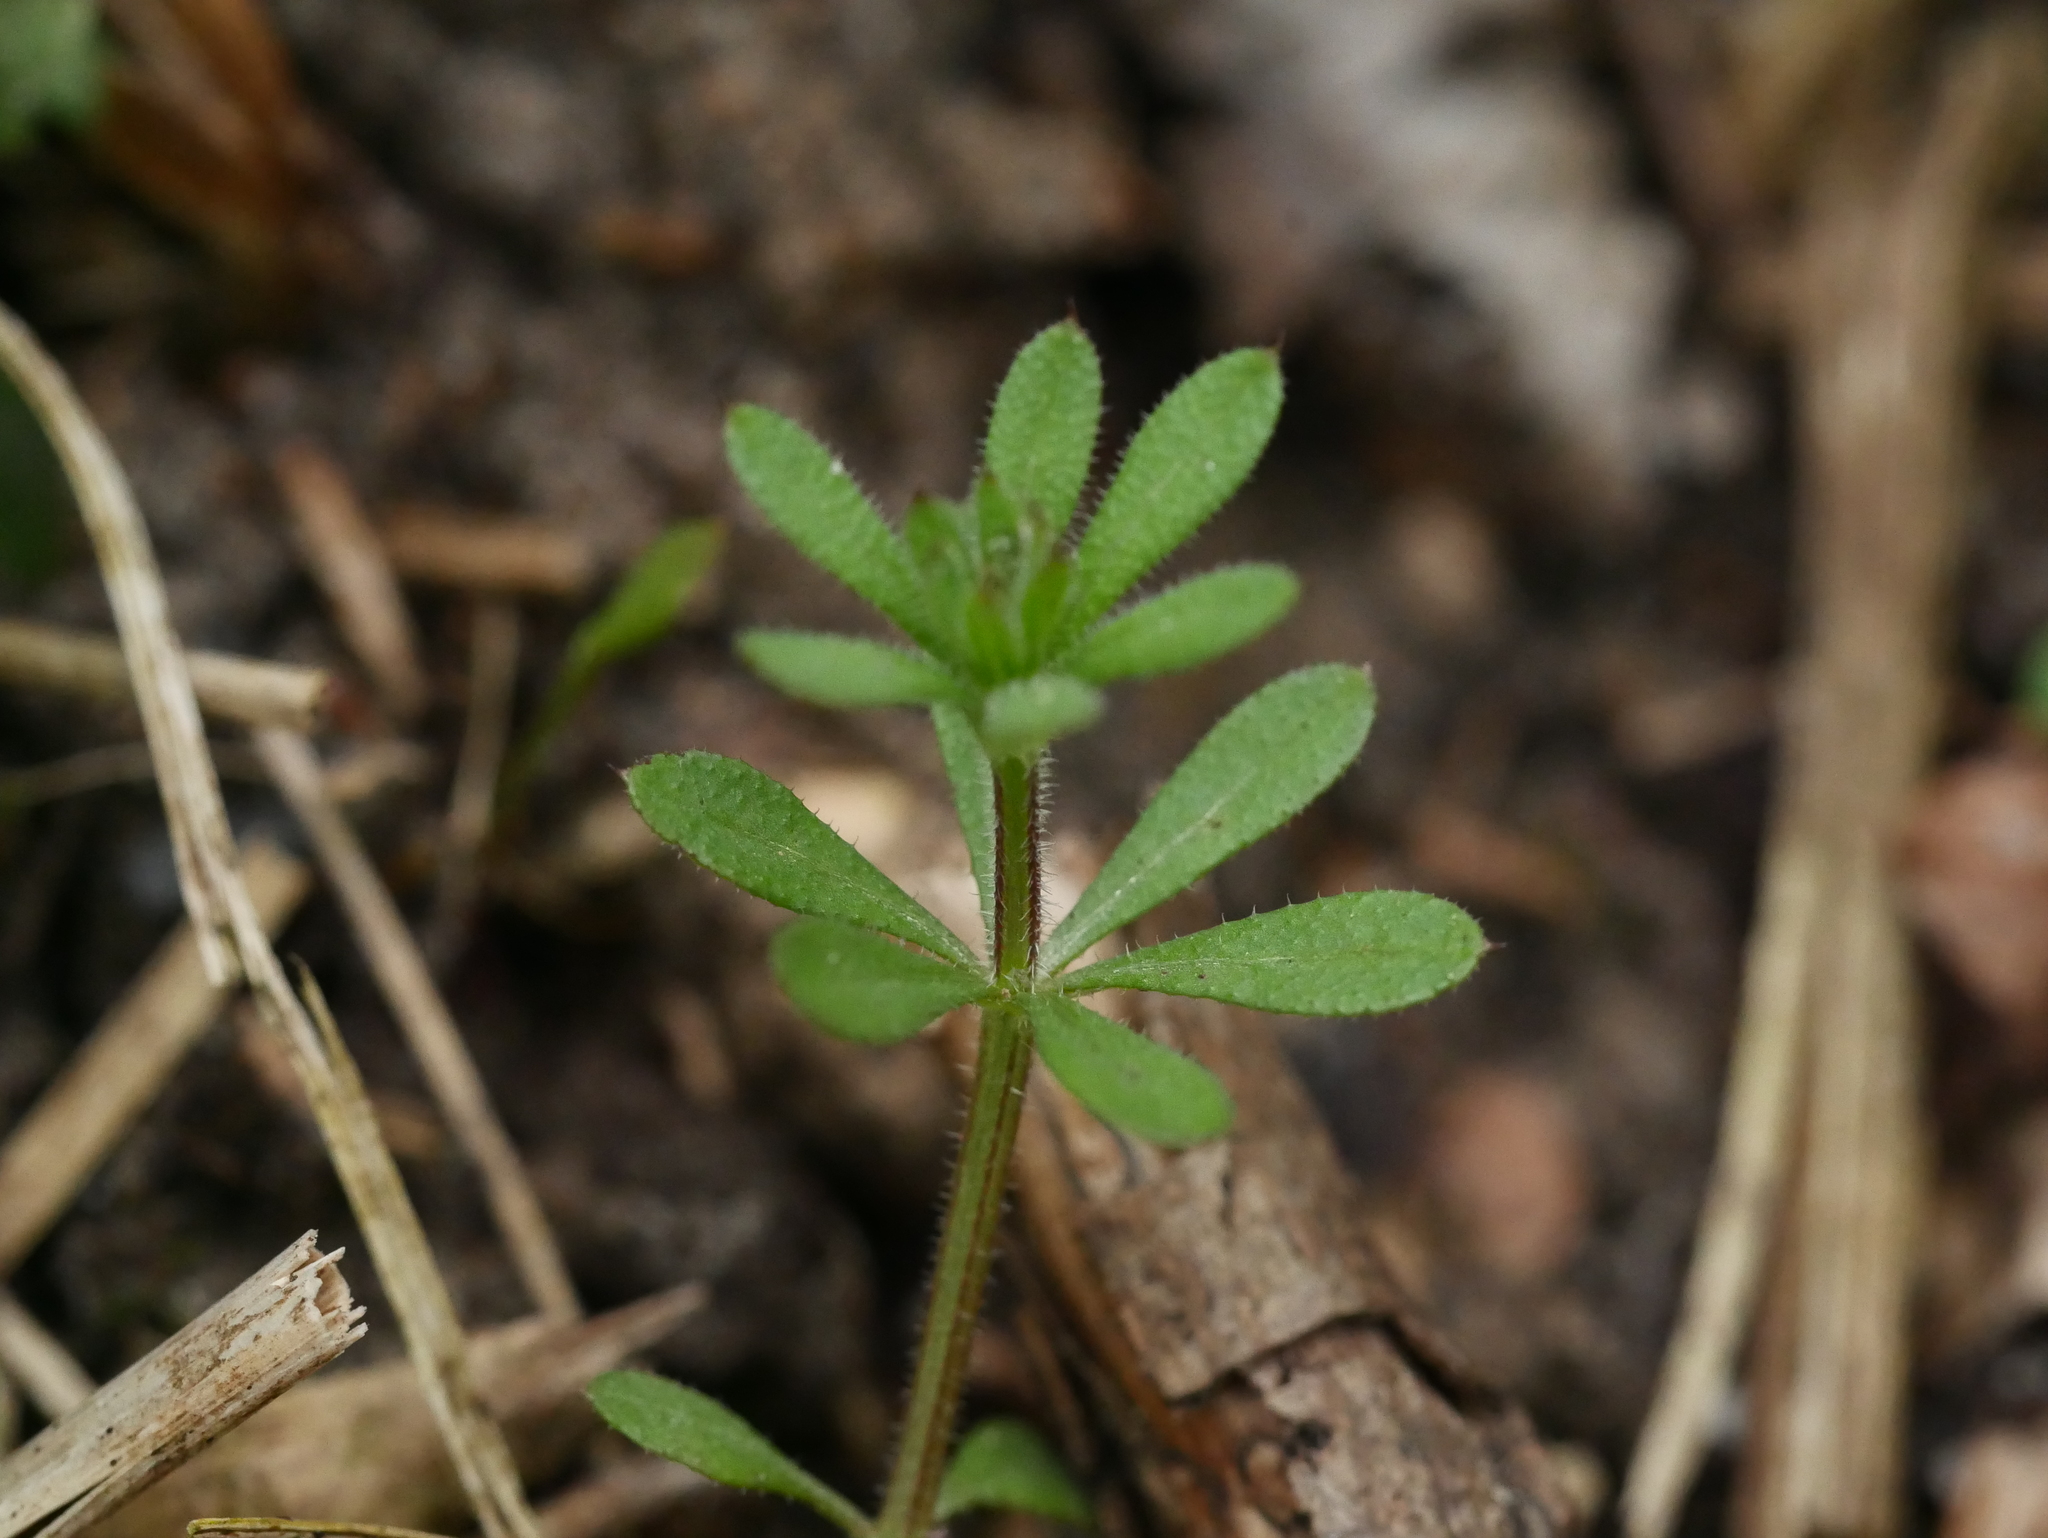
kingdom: Plantae
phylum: Tracheophyta
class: Magnoliopsida
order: Gentianales
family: Rubiaceae
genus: Galium
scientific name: Galium aparine
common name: Cleavers
